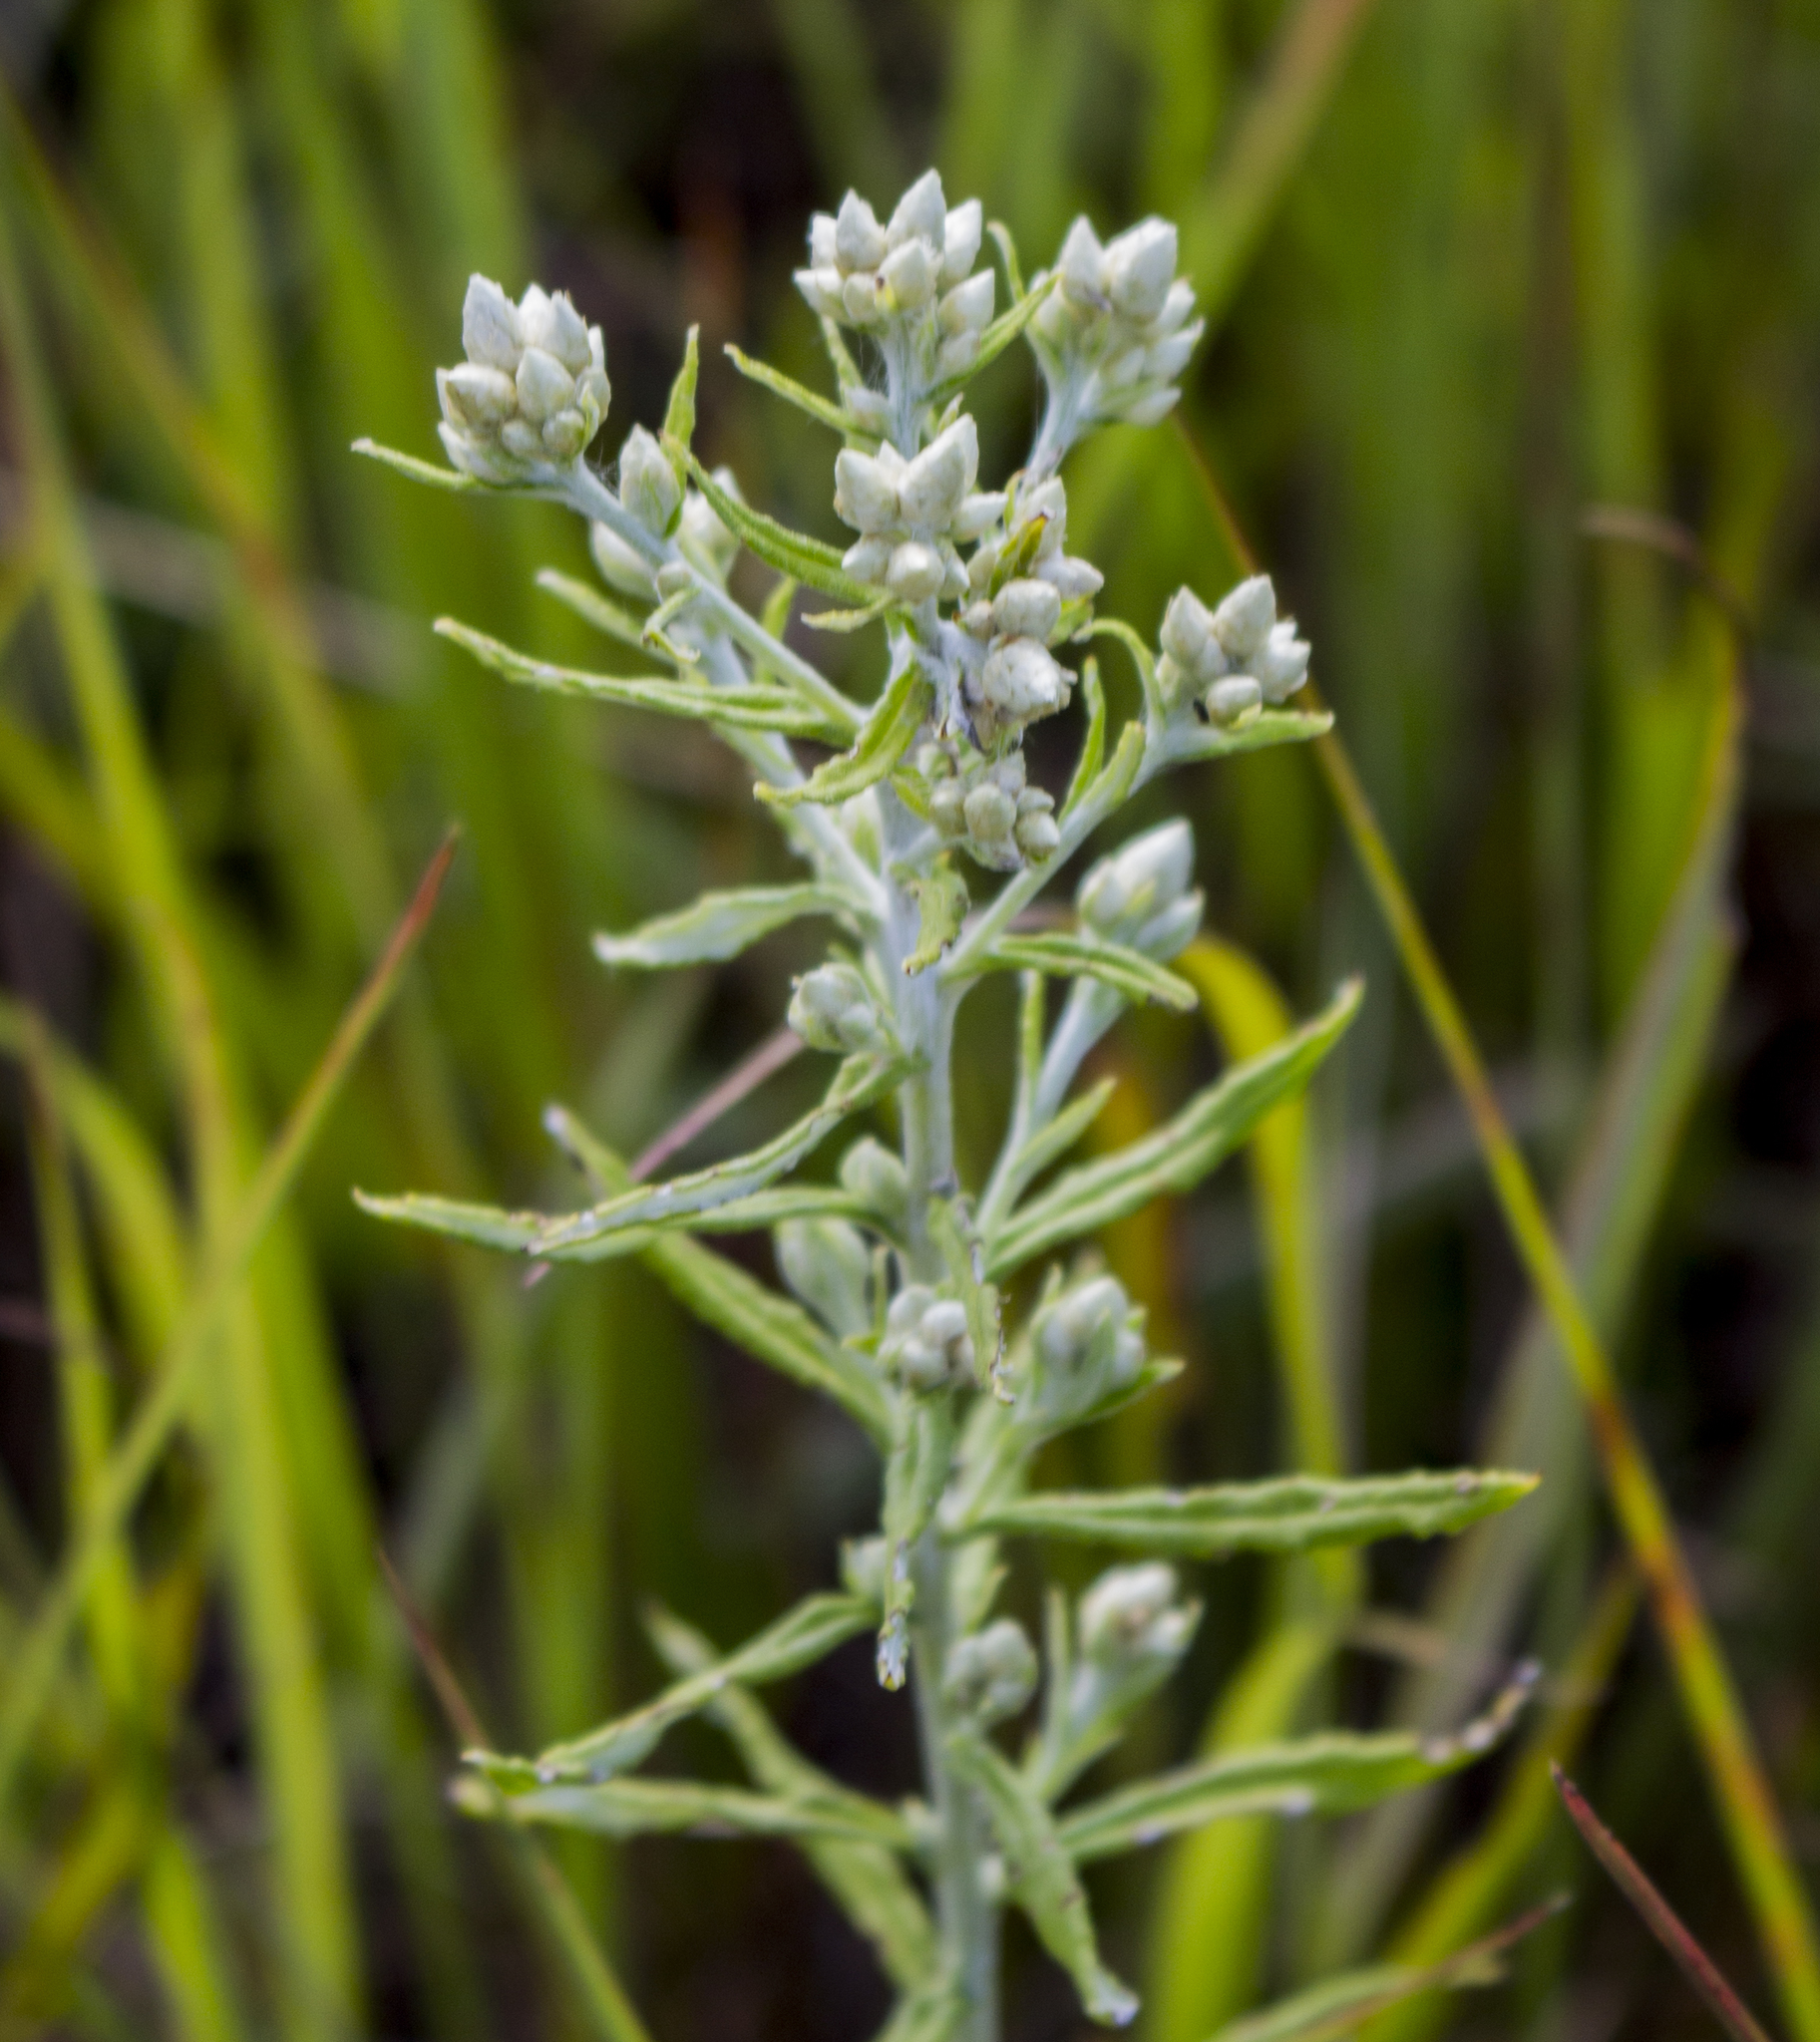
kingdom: Plantae
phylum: Tracheophyta
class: Magnoliopsida
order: Asterales
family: Asteraceae
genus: Pseudognaphalium
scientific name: Pseudognaphalium obtusifolium
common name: Eastern rabbit-tobacco
